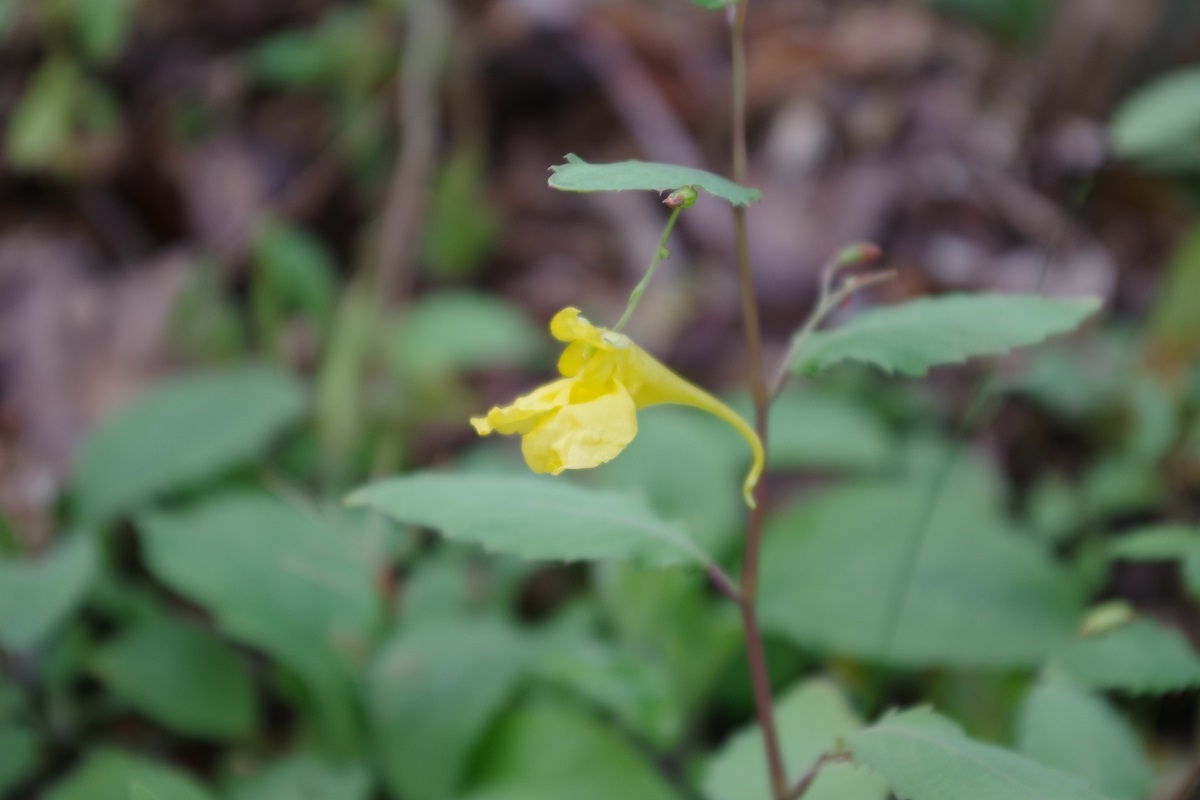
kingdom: Plantae
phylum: Tracheophyta
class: Magnoliopsida
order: Ericales
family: Balsaminaceae
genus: Impatiens
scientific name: Impatiens noli-tangere
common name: Touch-me-not balsam
